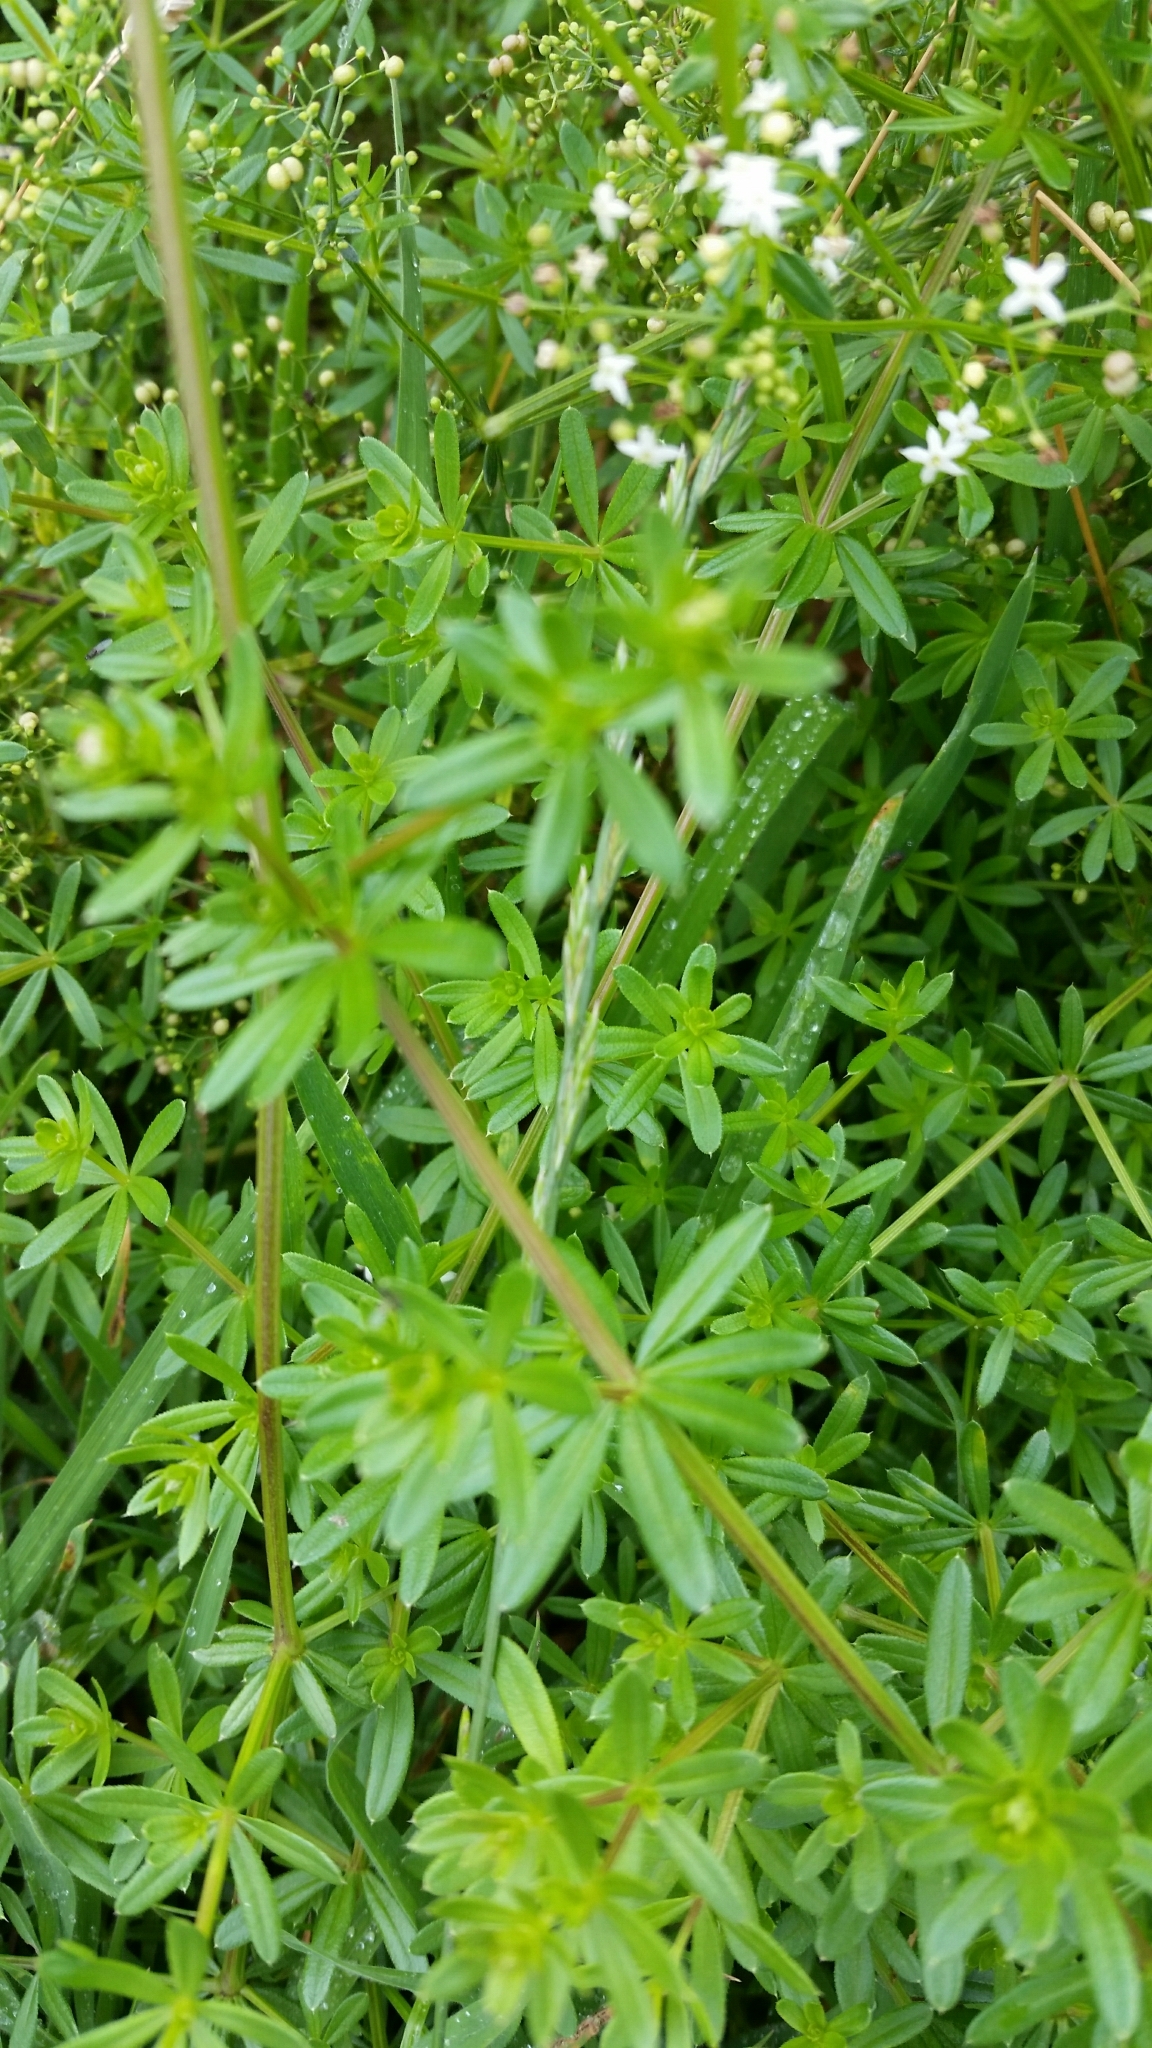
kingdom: Plantae
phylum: Tracheophyta
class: Magnoliopsida
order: Gentianales
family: Rubiaceae
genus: Galium
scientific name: Galium saxatile
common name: Heath bedstraw
